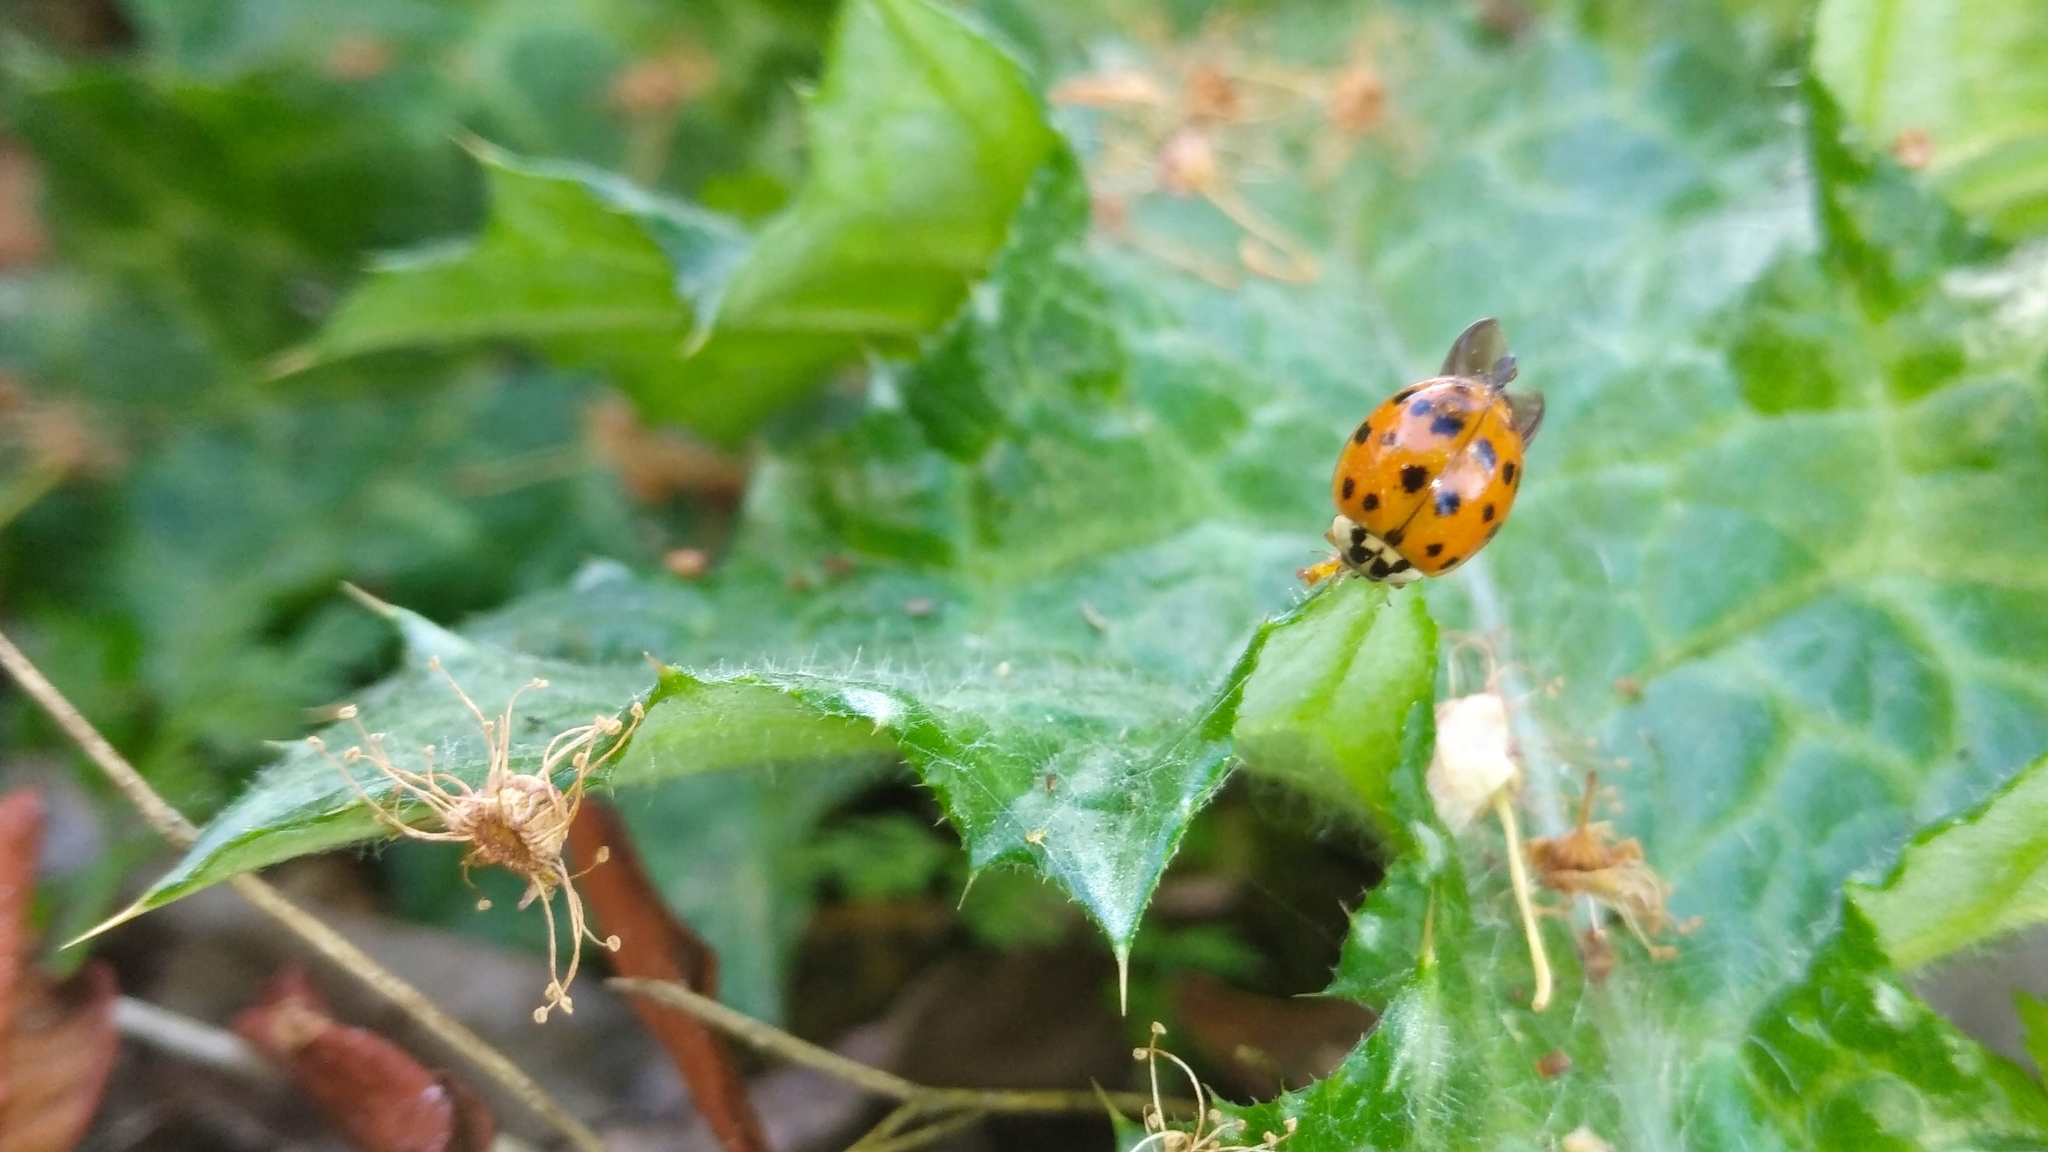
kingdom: Animalia
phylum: Arthropoda
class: Insecta
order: Coleoptera
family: Coccinellidae
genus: Harmonia
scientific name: Harmonia axyridis
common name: Harlequin ladybird
